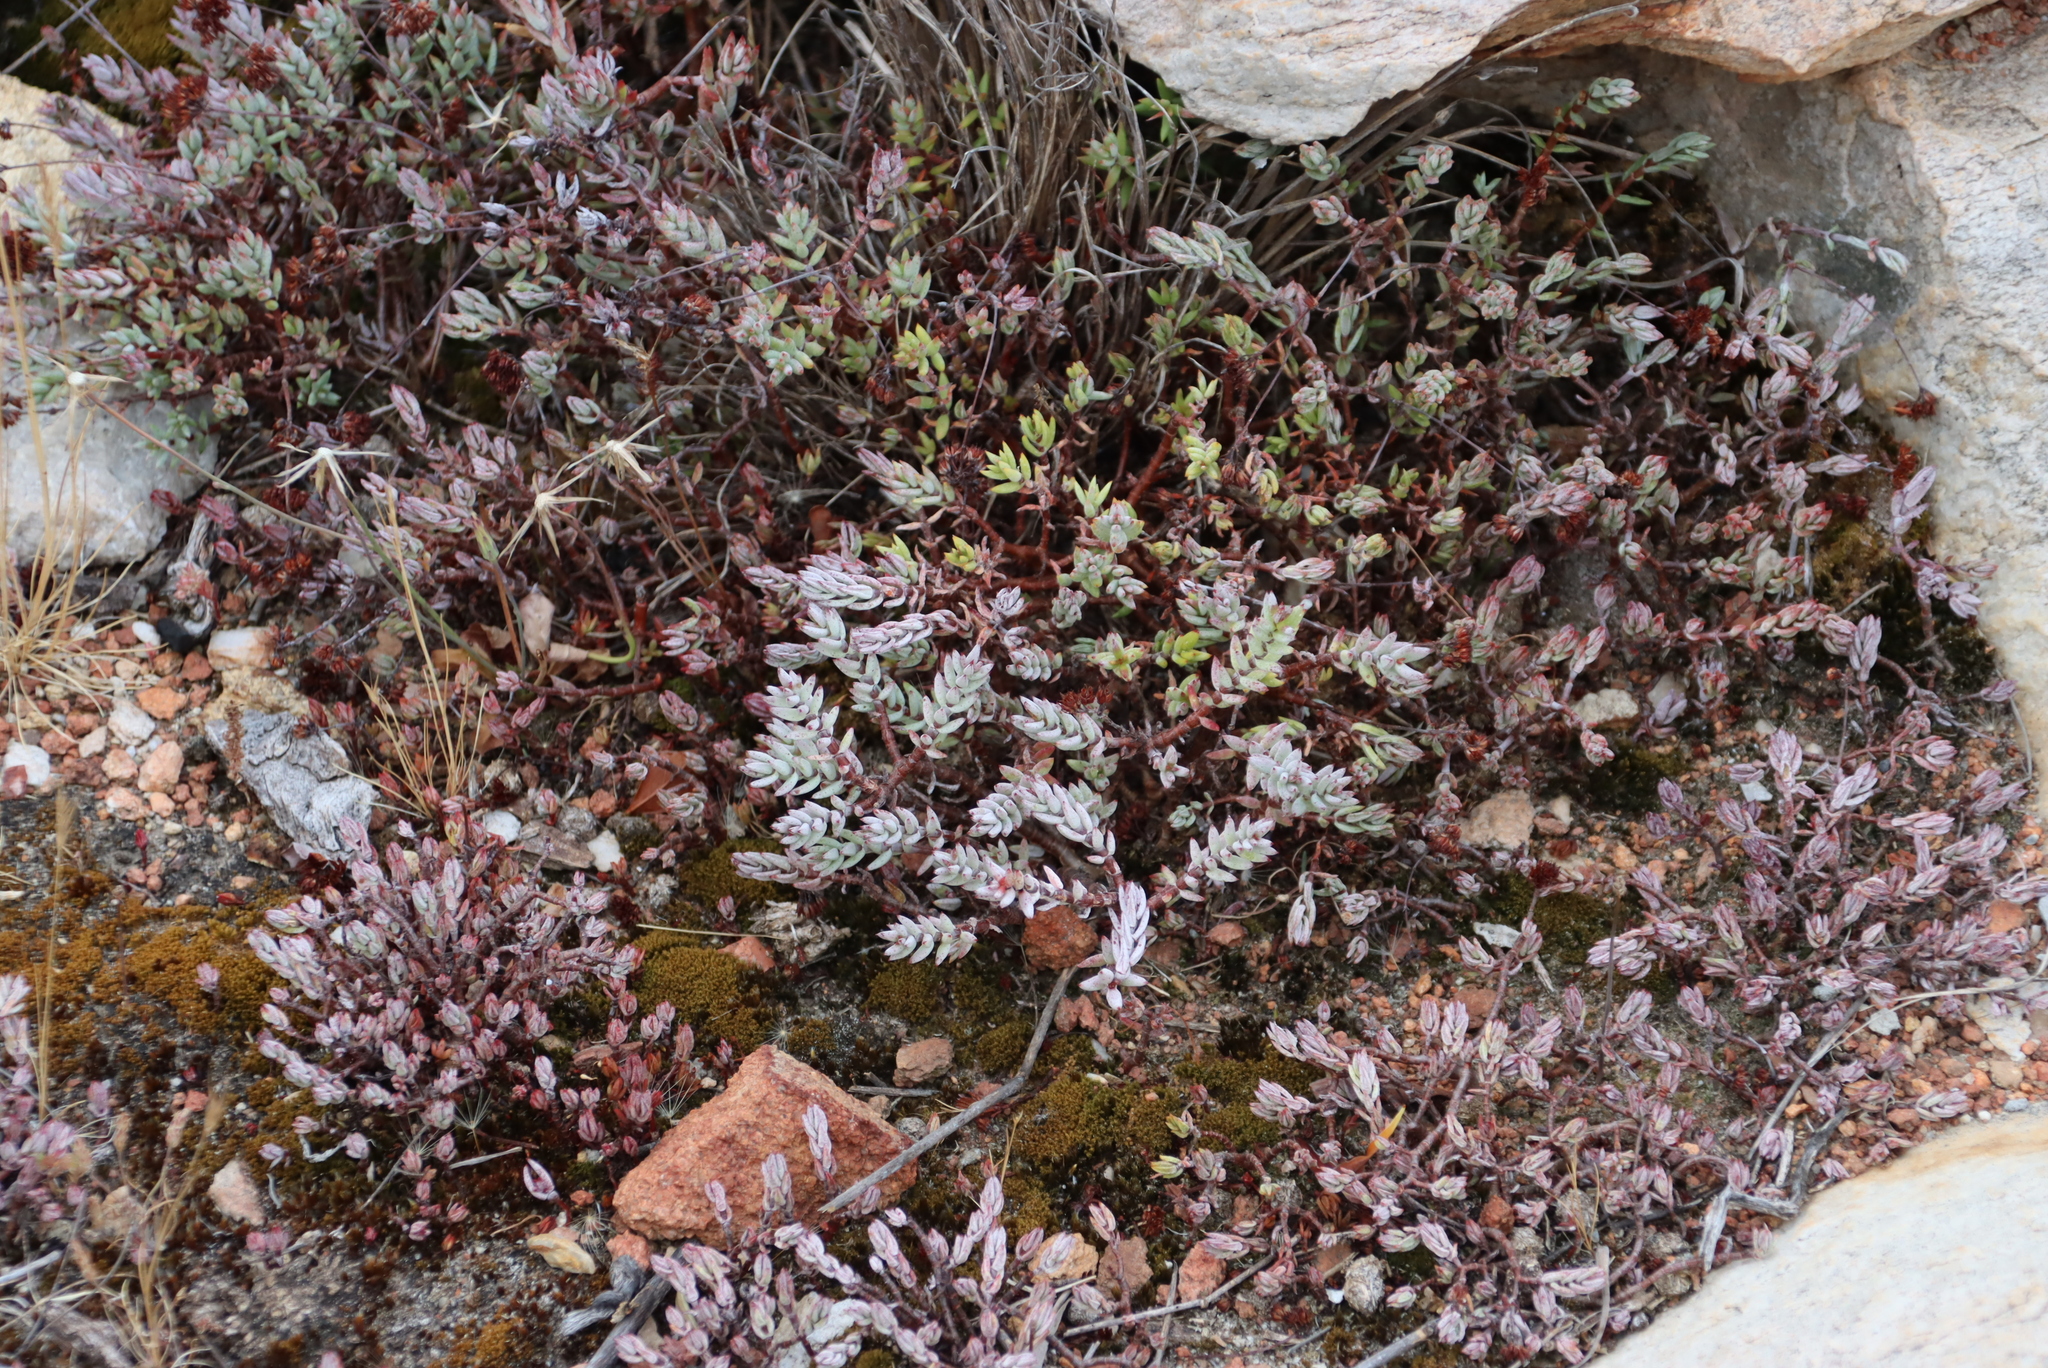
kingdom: Plantae
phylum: Tracheophyta
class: Magnoliopsida
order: Saxifragales
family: Crassulaceae
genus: Crassula
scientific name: Crassula biplanata
